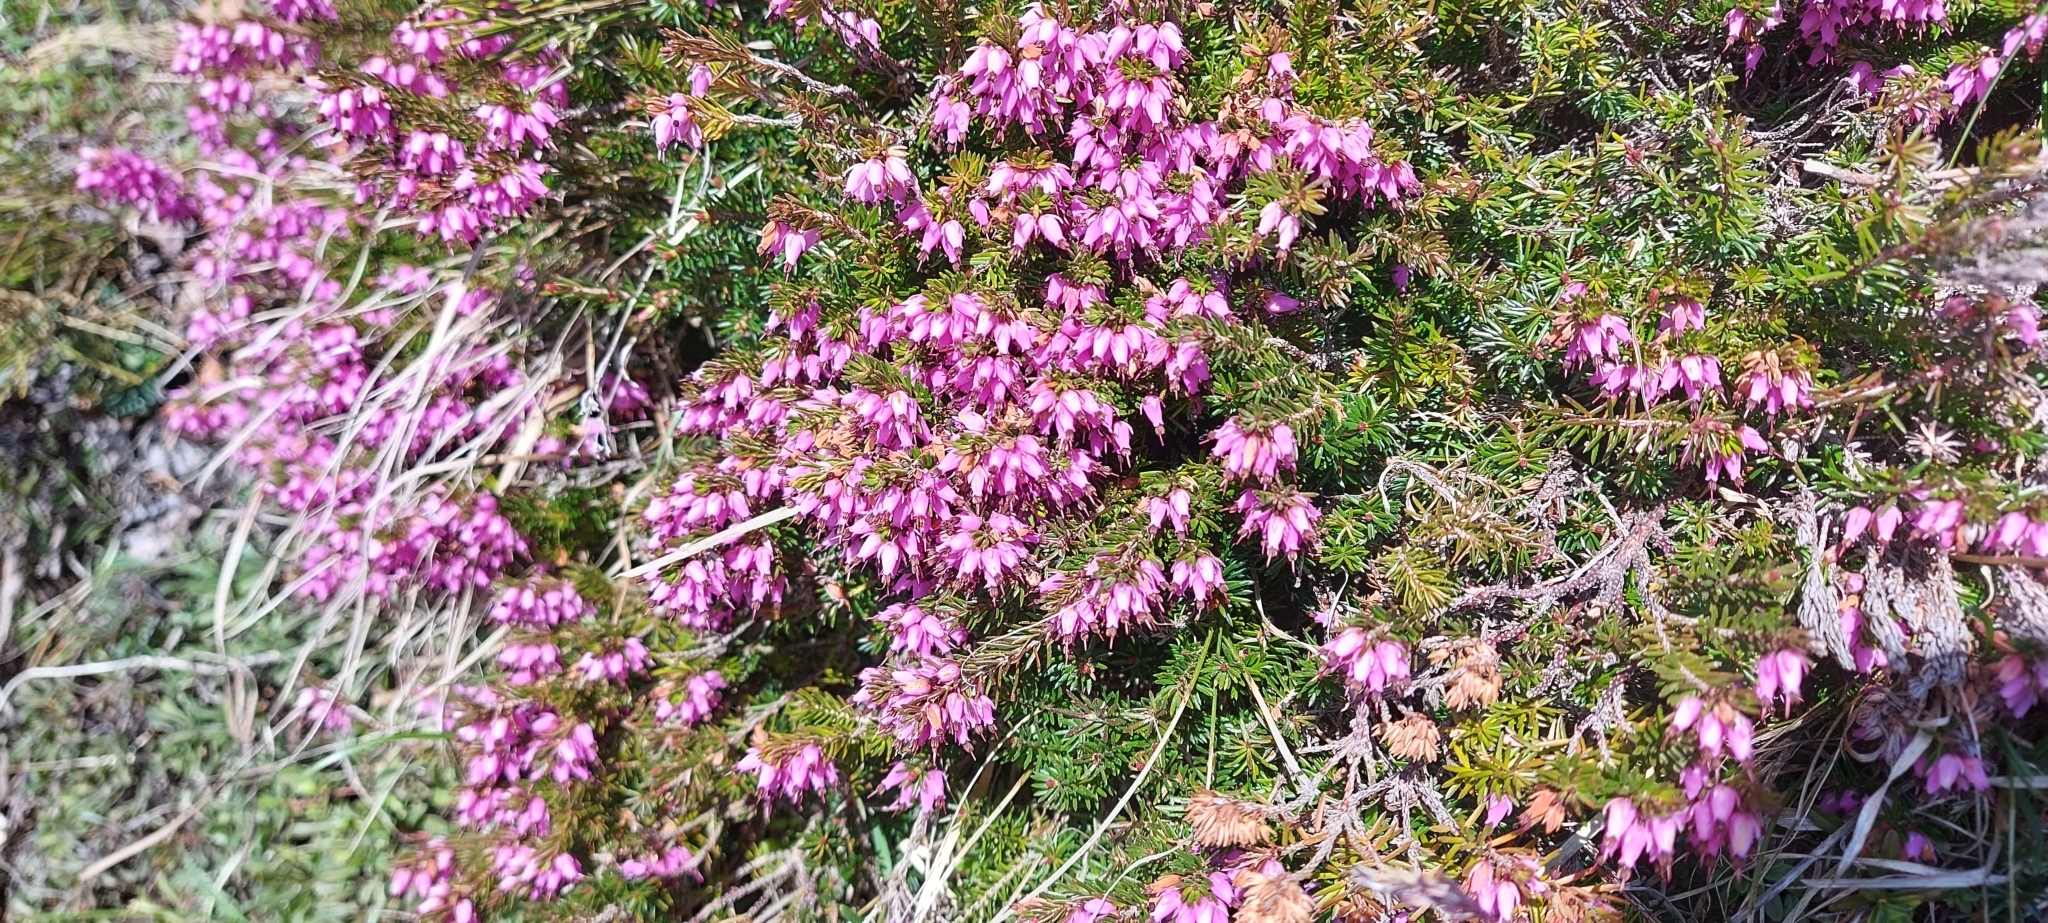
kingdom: Plantae
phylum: Tracheophyta
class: Magnoliopsida
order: Ericales
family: Ericaceae
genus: Erica
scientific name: Erica carnea
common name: Winter heath
